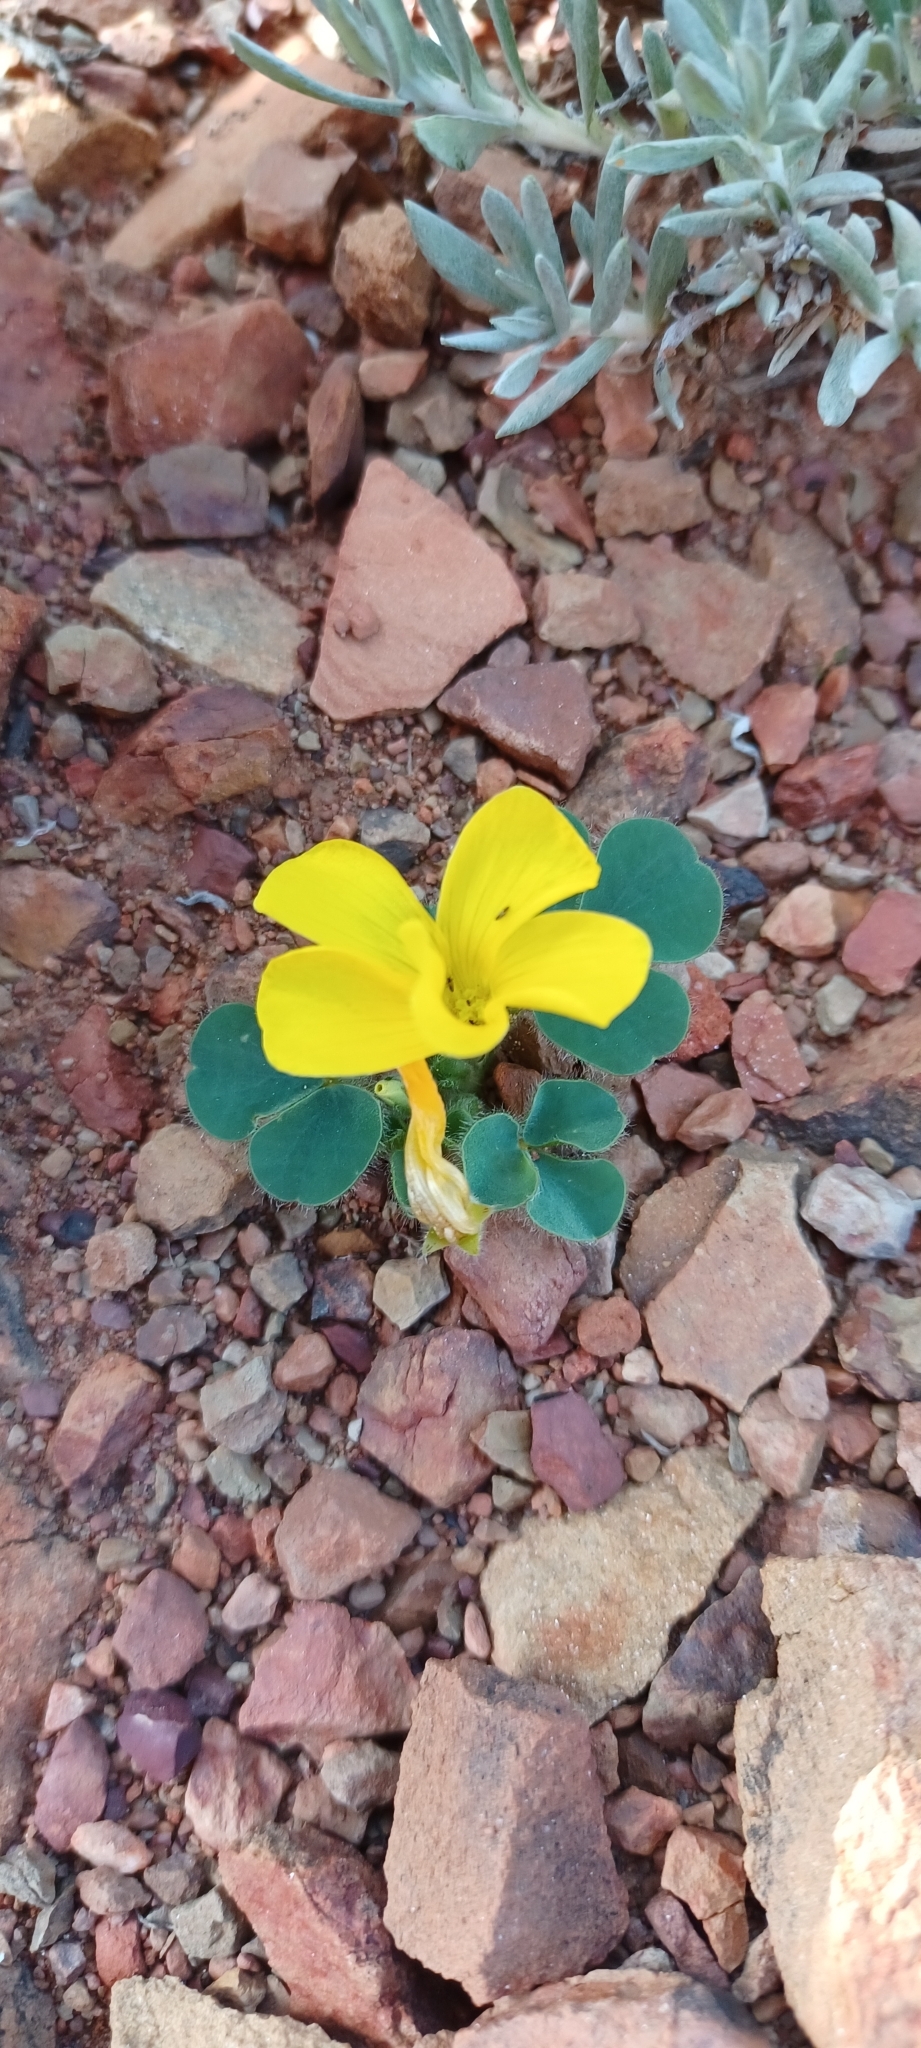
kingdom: Plantae
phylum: Tracheophyta
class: Magnoliopsida
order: Oxalidales
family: Oxalidaceae
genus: Oxalis
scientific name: Oxalis purpurea
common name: Purple woodsorrel
